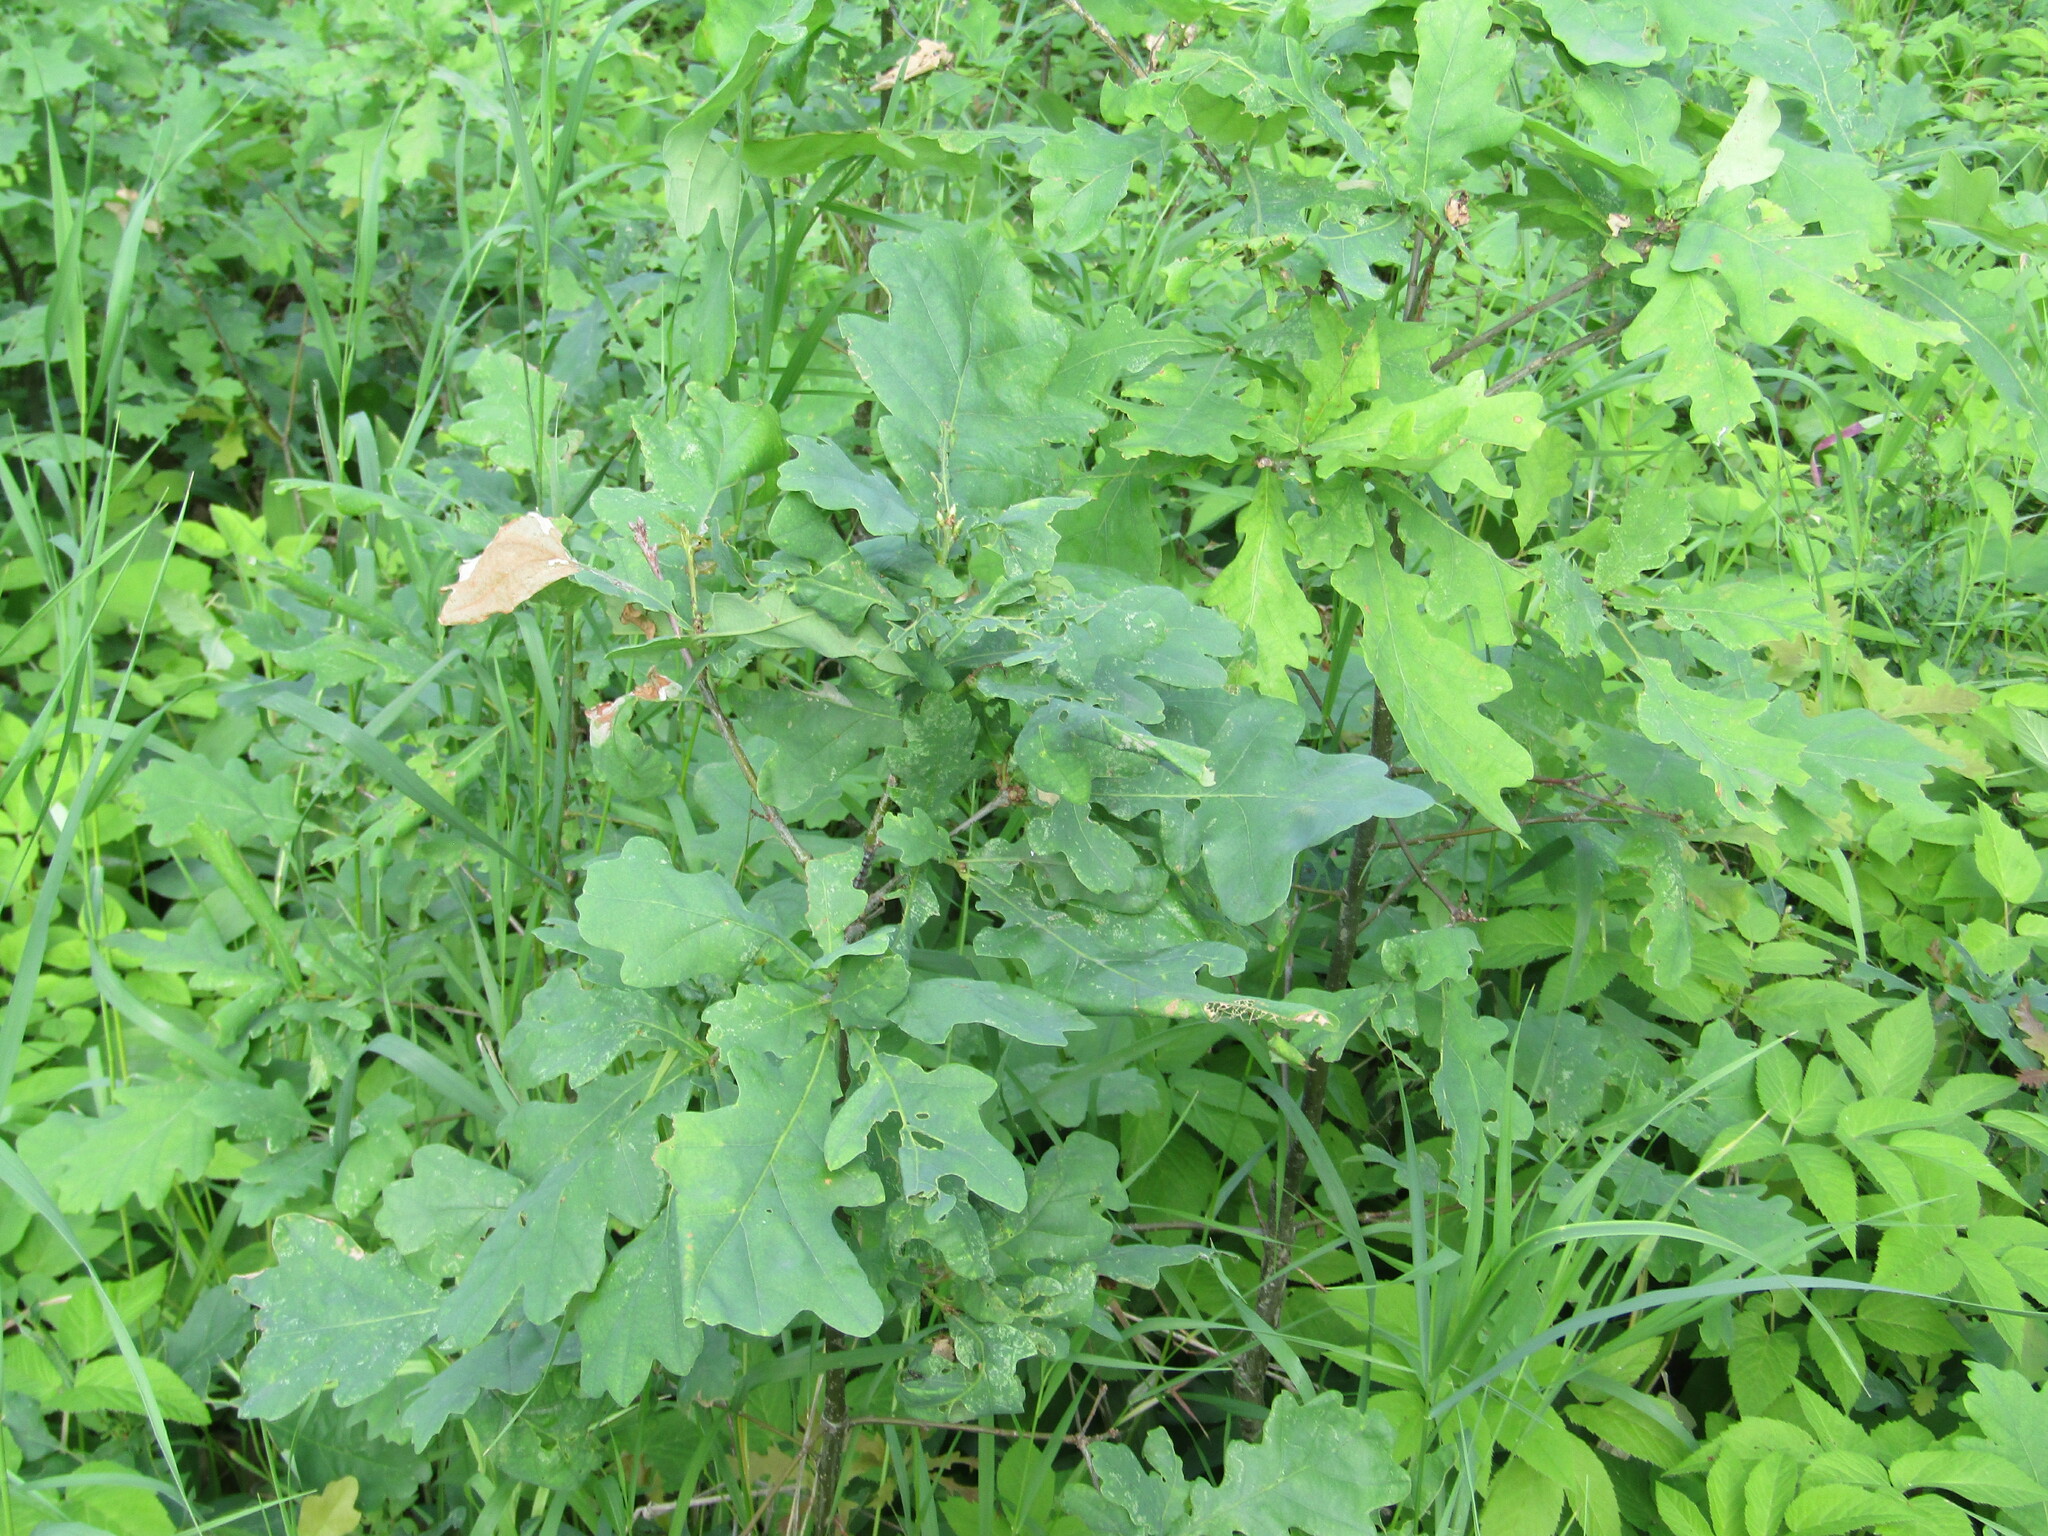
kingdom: Plantae
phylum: Tracheophyta
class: Magnoliopsida
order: Fagales
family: Fagaceae
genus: Quercus
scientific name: Quercus robur
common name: Pedunculate oak
